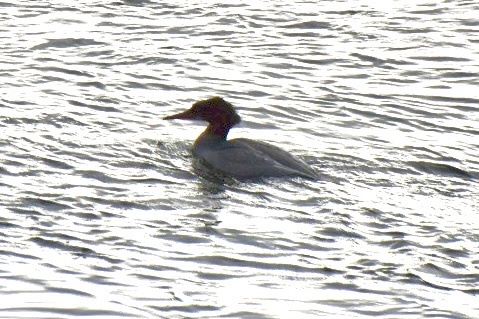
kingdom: Animalia
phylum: Chordata
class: Aves
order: Anseriformes
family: Anatidae
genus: Mergus
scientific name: Mergus merganser
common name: Common merganser
